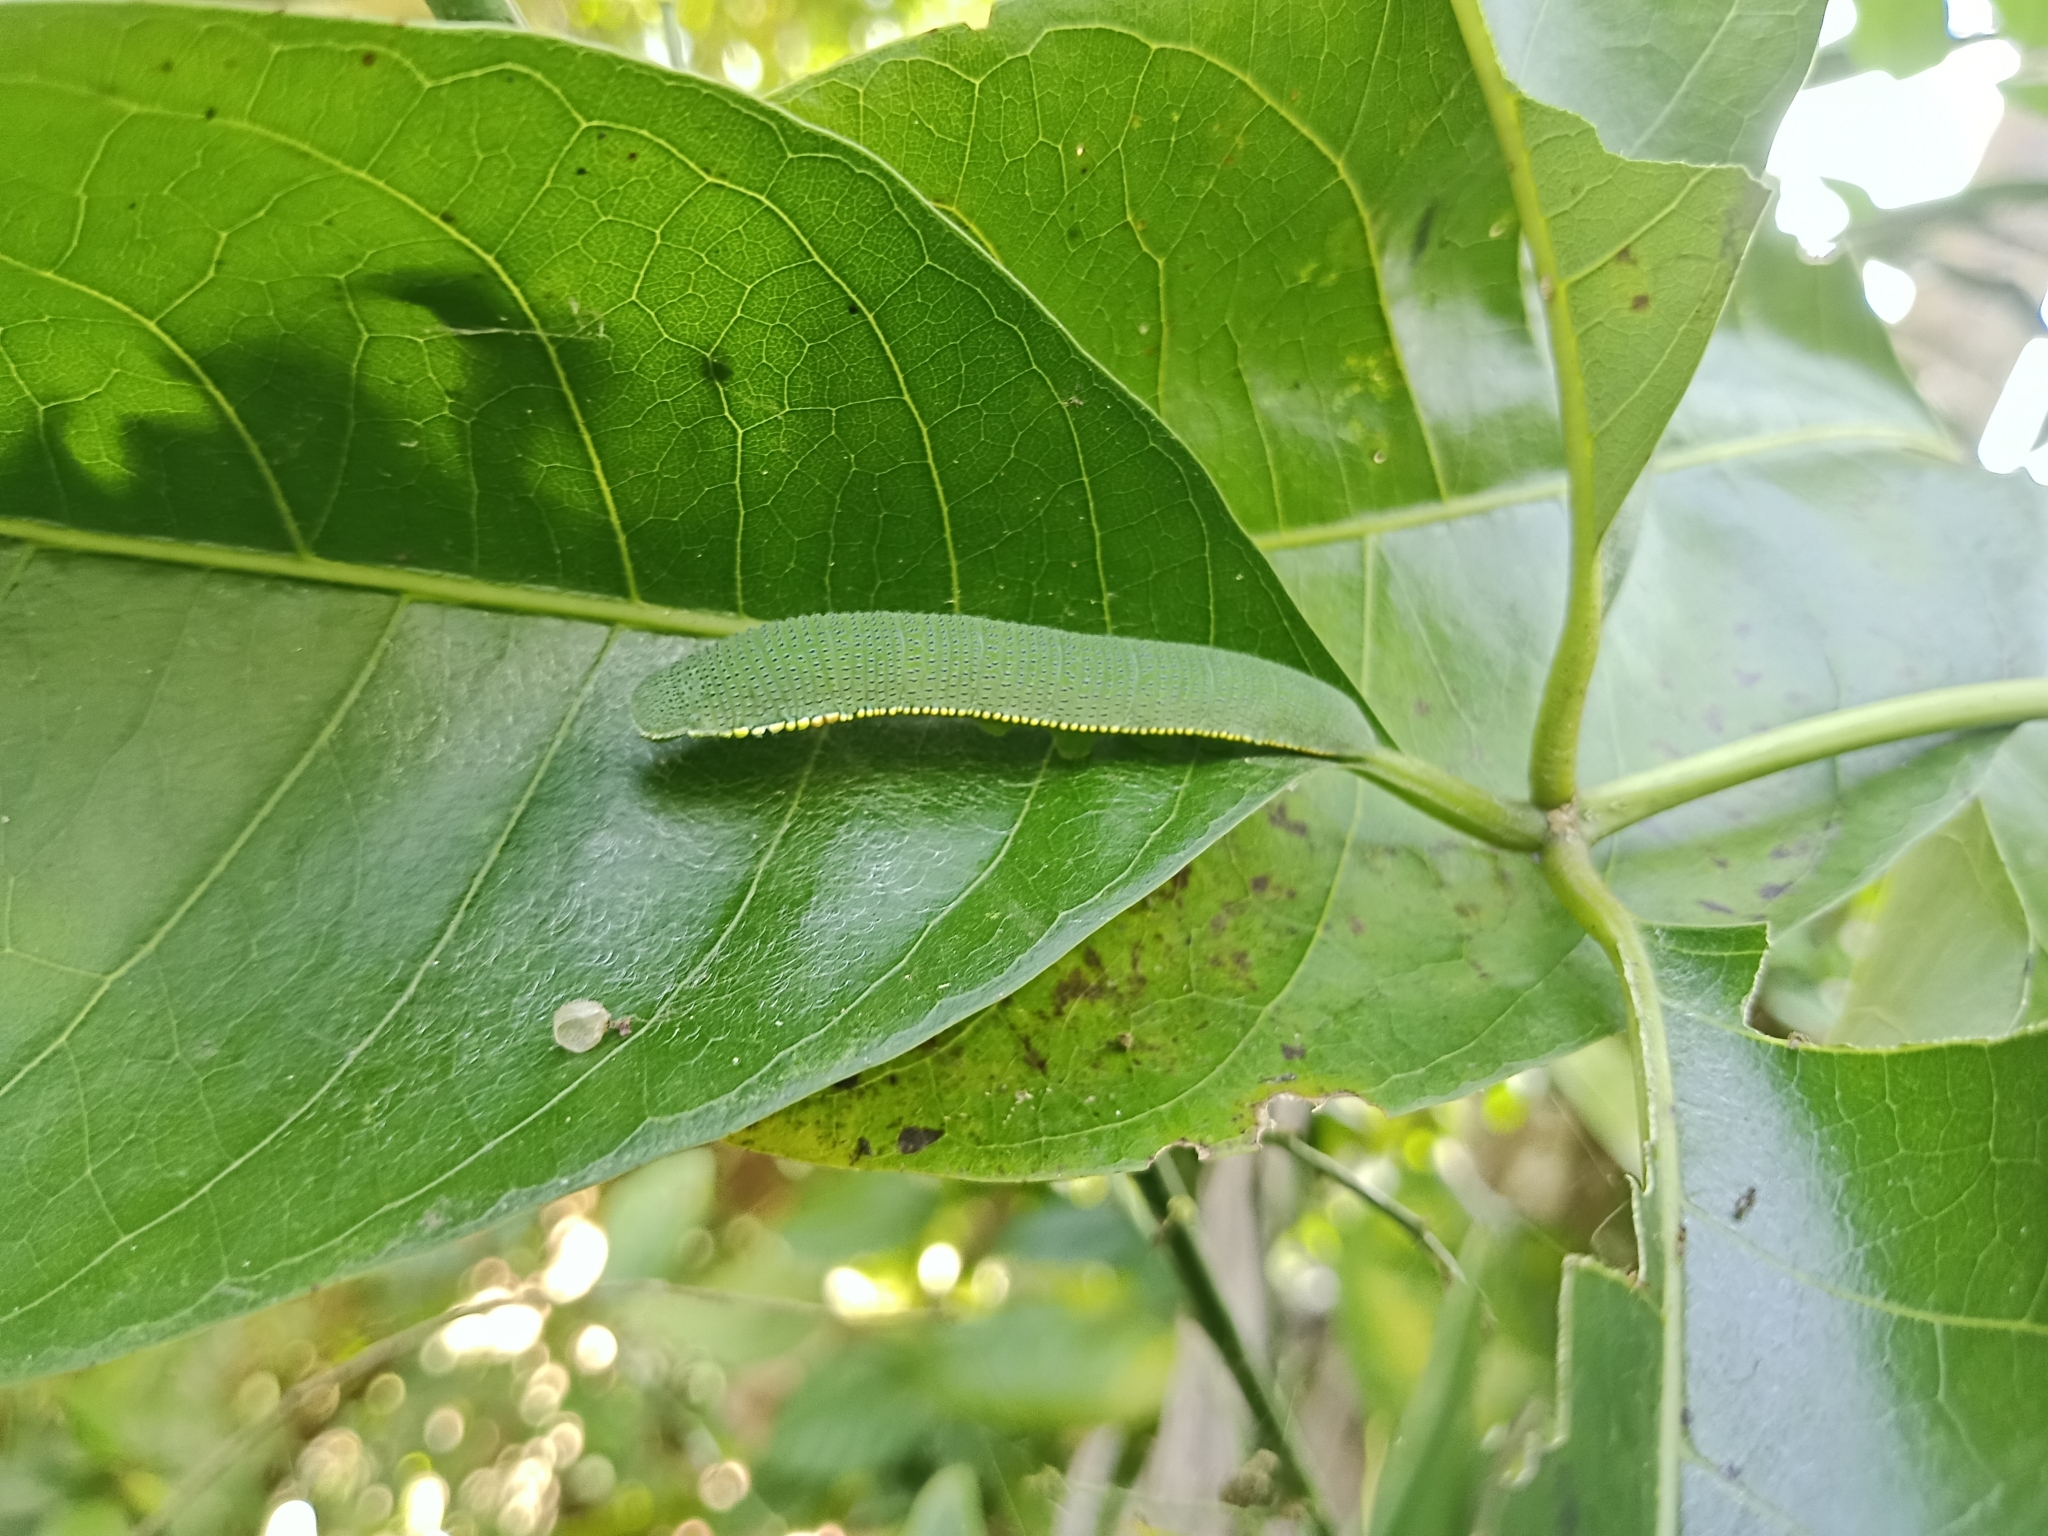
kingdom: Animalia
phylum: Arthropoda
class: Insecta
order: Lepidoptera
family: Pieridae
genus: Hebomoia
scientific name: Hebomoia glaucippe
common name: Great orange tip
